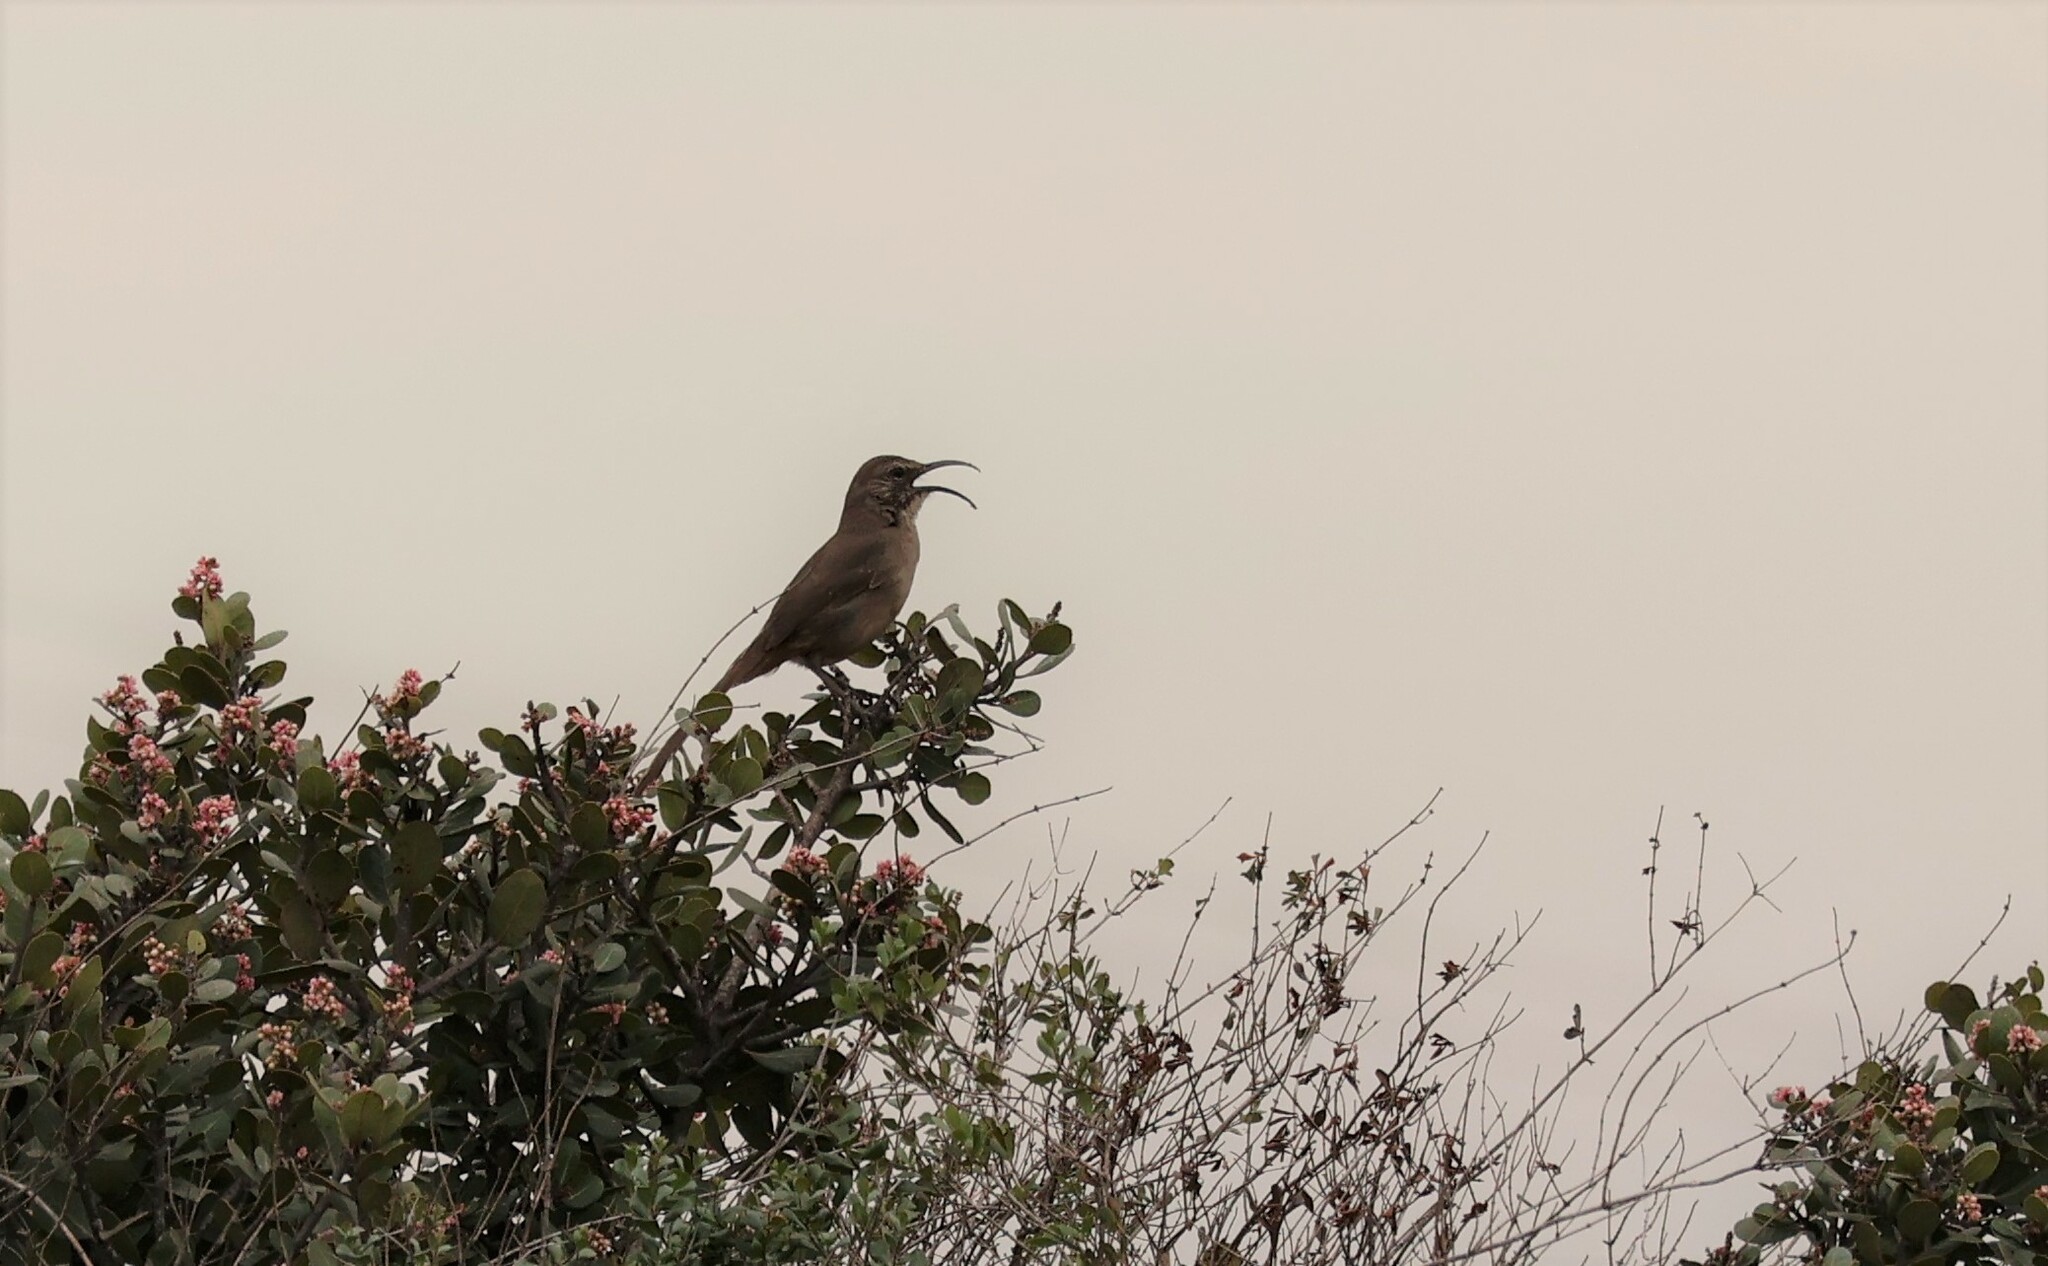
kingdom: Animalia
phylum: Chordata
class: Aves
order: Passeriformes
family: Mimidae
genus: Toxostoma
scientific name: Toxostoma redivivum
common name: California thrasher
